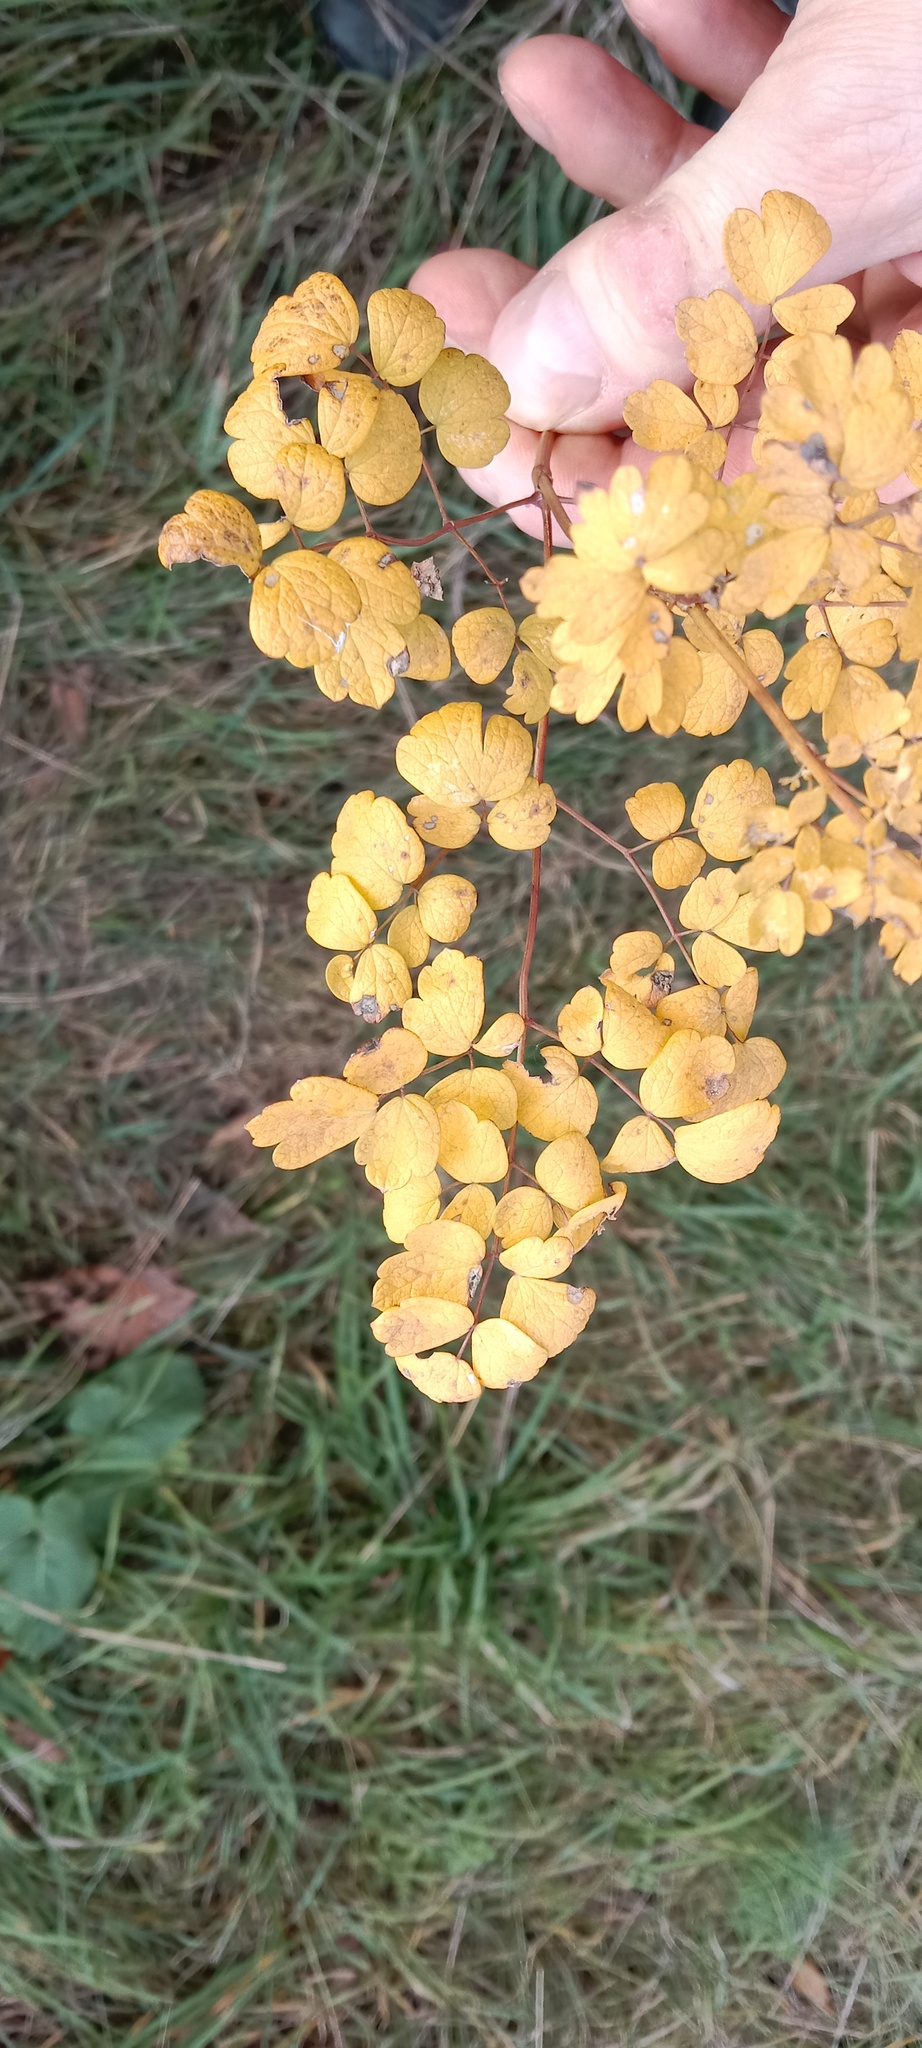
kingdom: Plantae
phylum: Tracheophyta
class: Magnoliopsida
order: Ranunculales
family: Ranunculaceae
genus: Thalictrum
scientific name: Thalictrum minus
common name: Lesser meadow-rue
